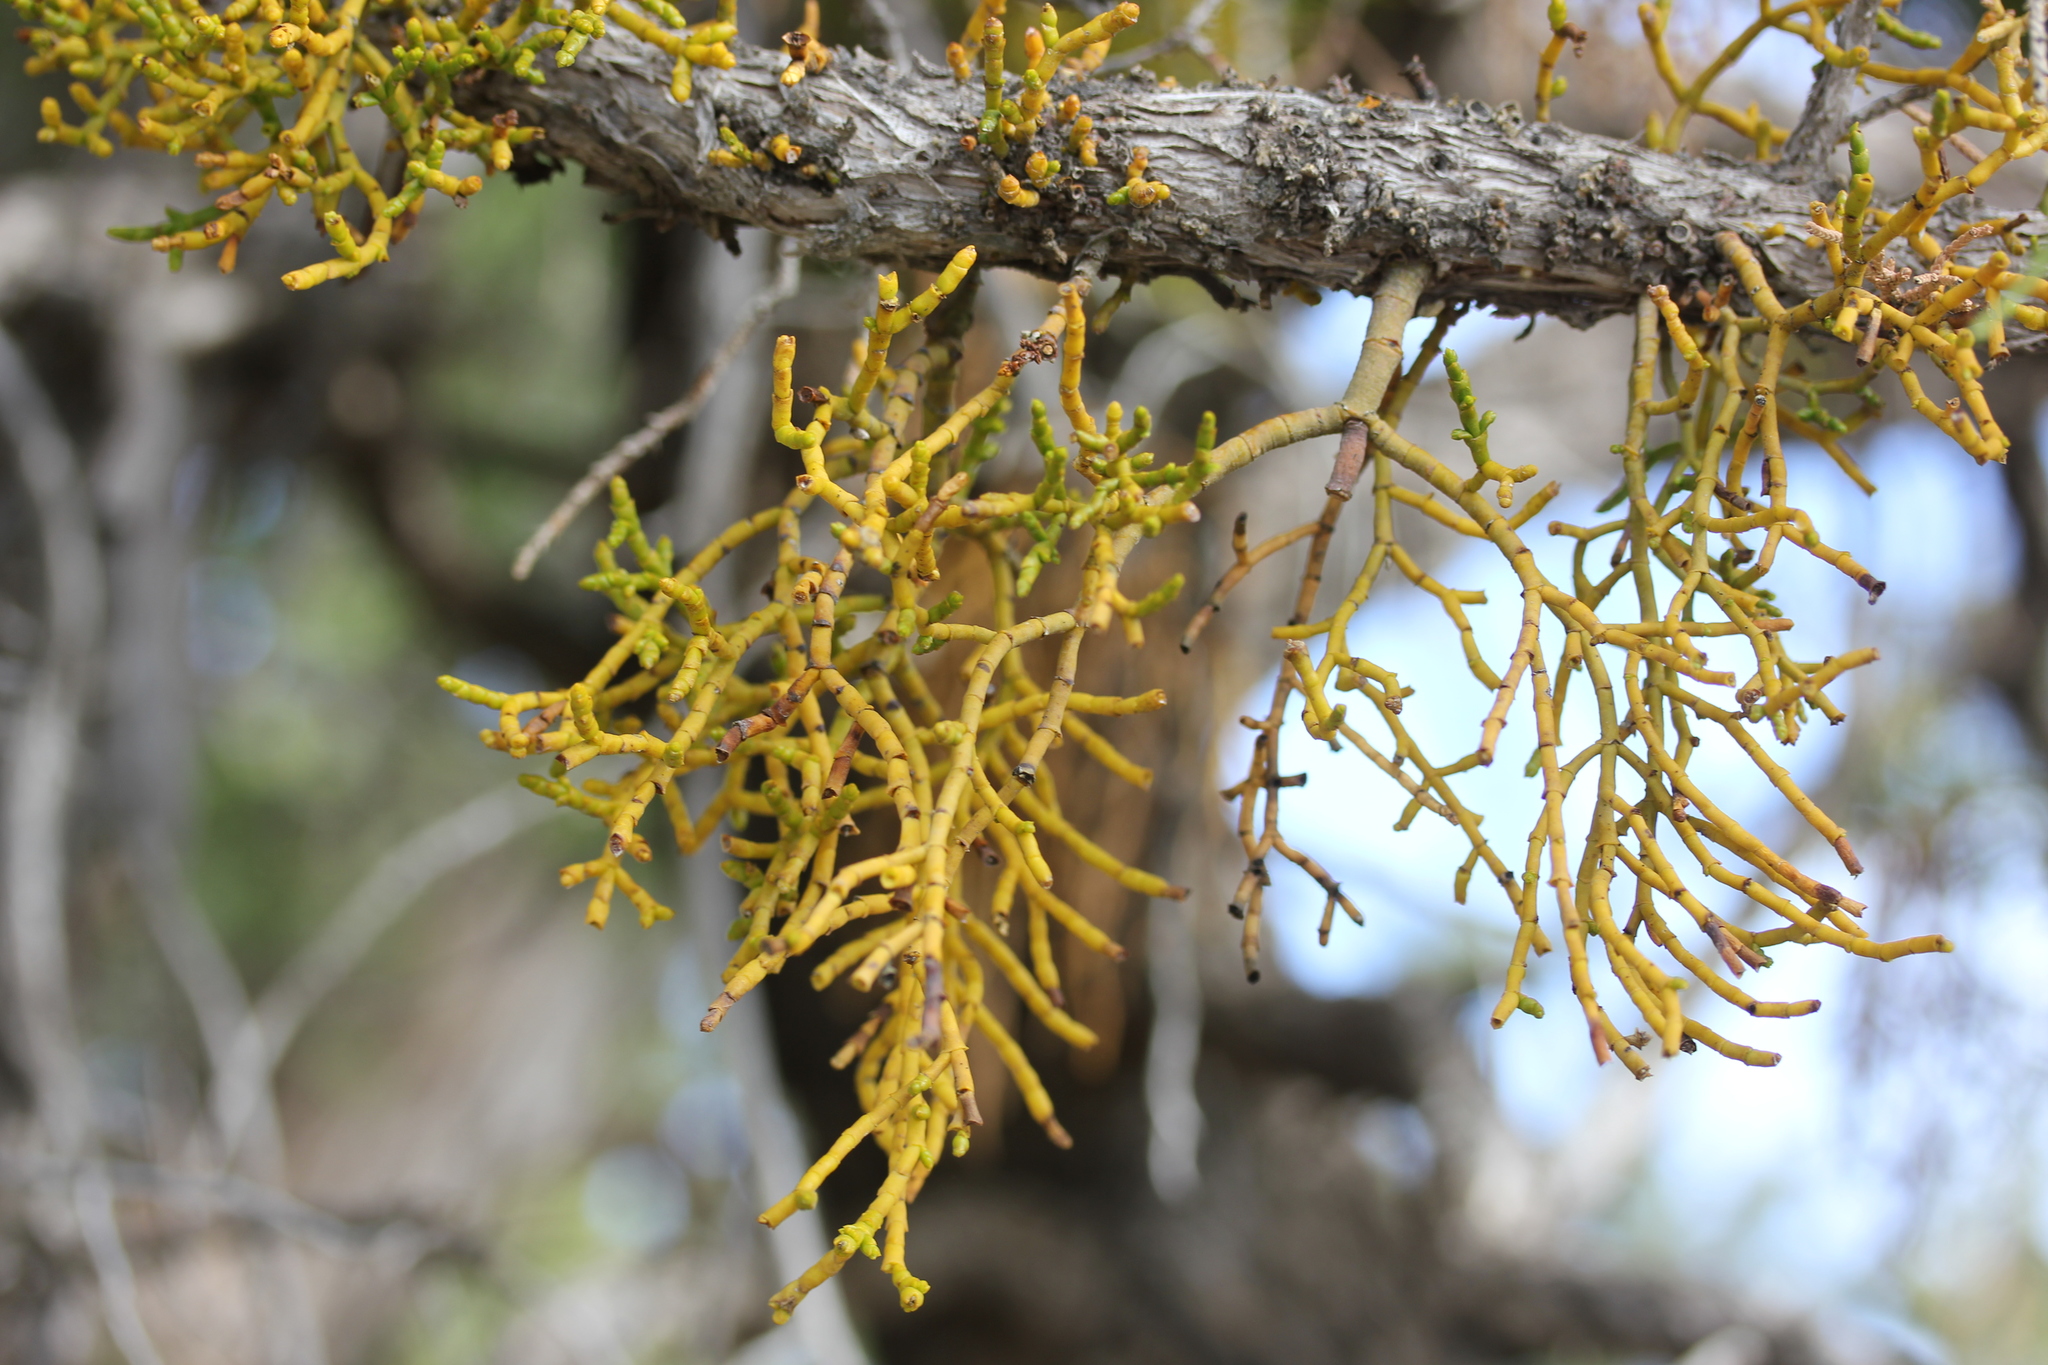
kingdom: Plantae
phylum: Tracheophyta
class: Magnoliopsida
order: Santalales
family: Viscaceae
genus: Phoradendron
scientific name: Phoradendron juniperinum
